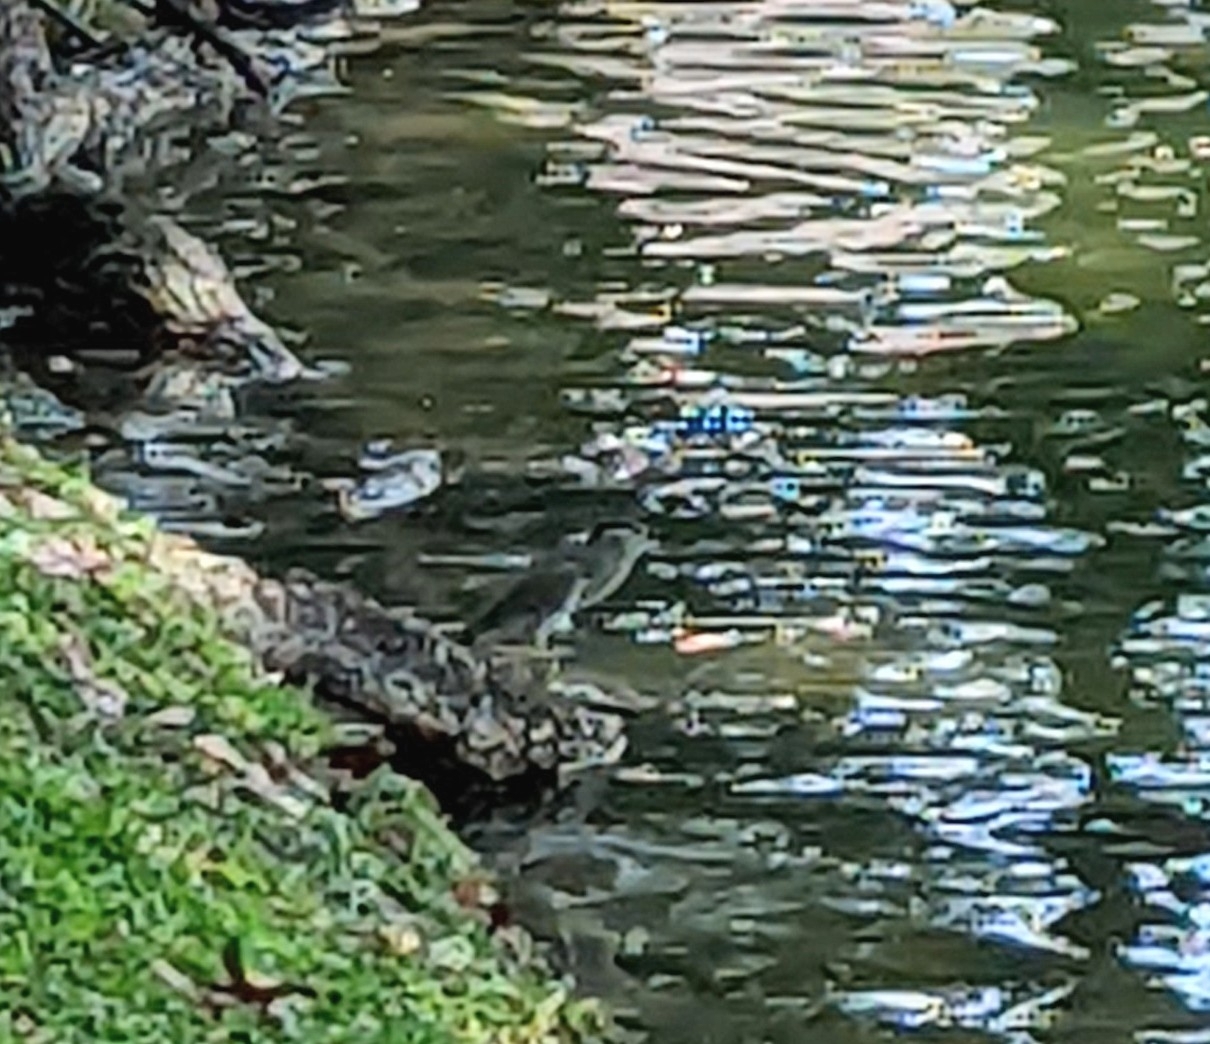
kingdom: Animalia
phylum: Chordata
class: Aves
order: Pelecaniformes
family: Ardeidae
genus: Nycticorax
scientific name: Nycticorax nycticorax
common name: Black-crowned night heron
